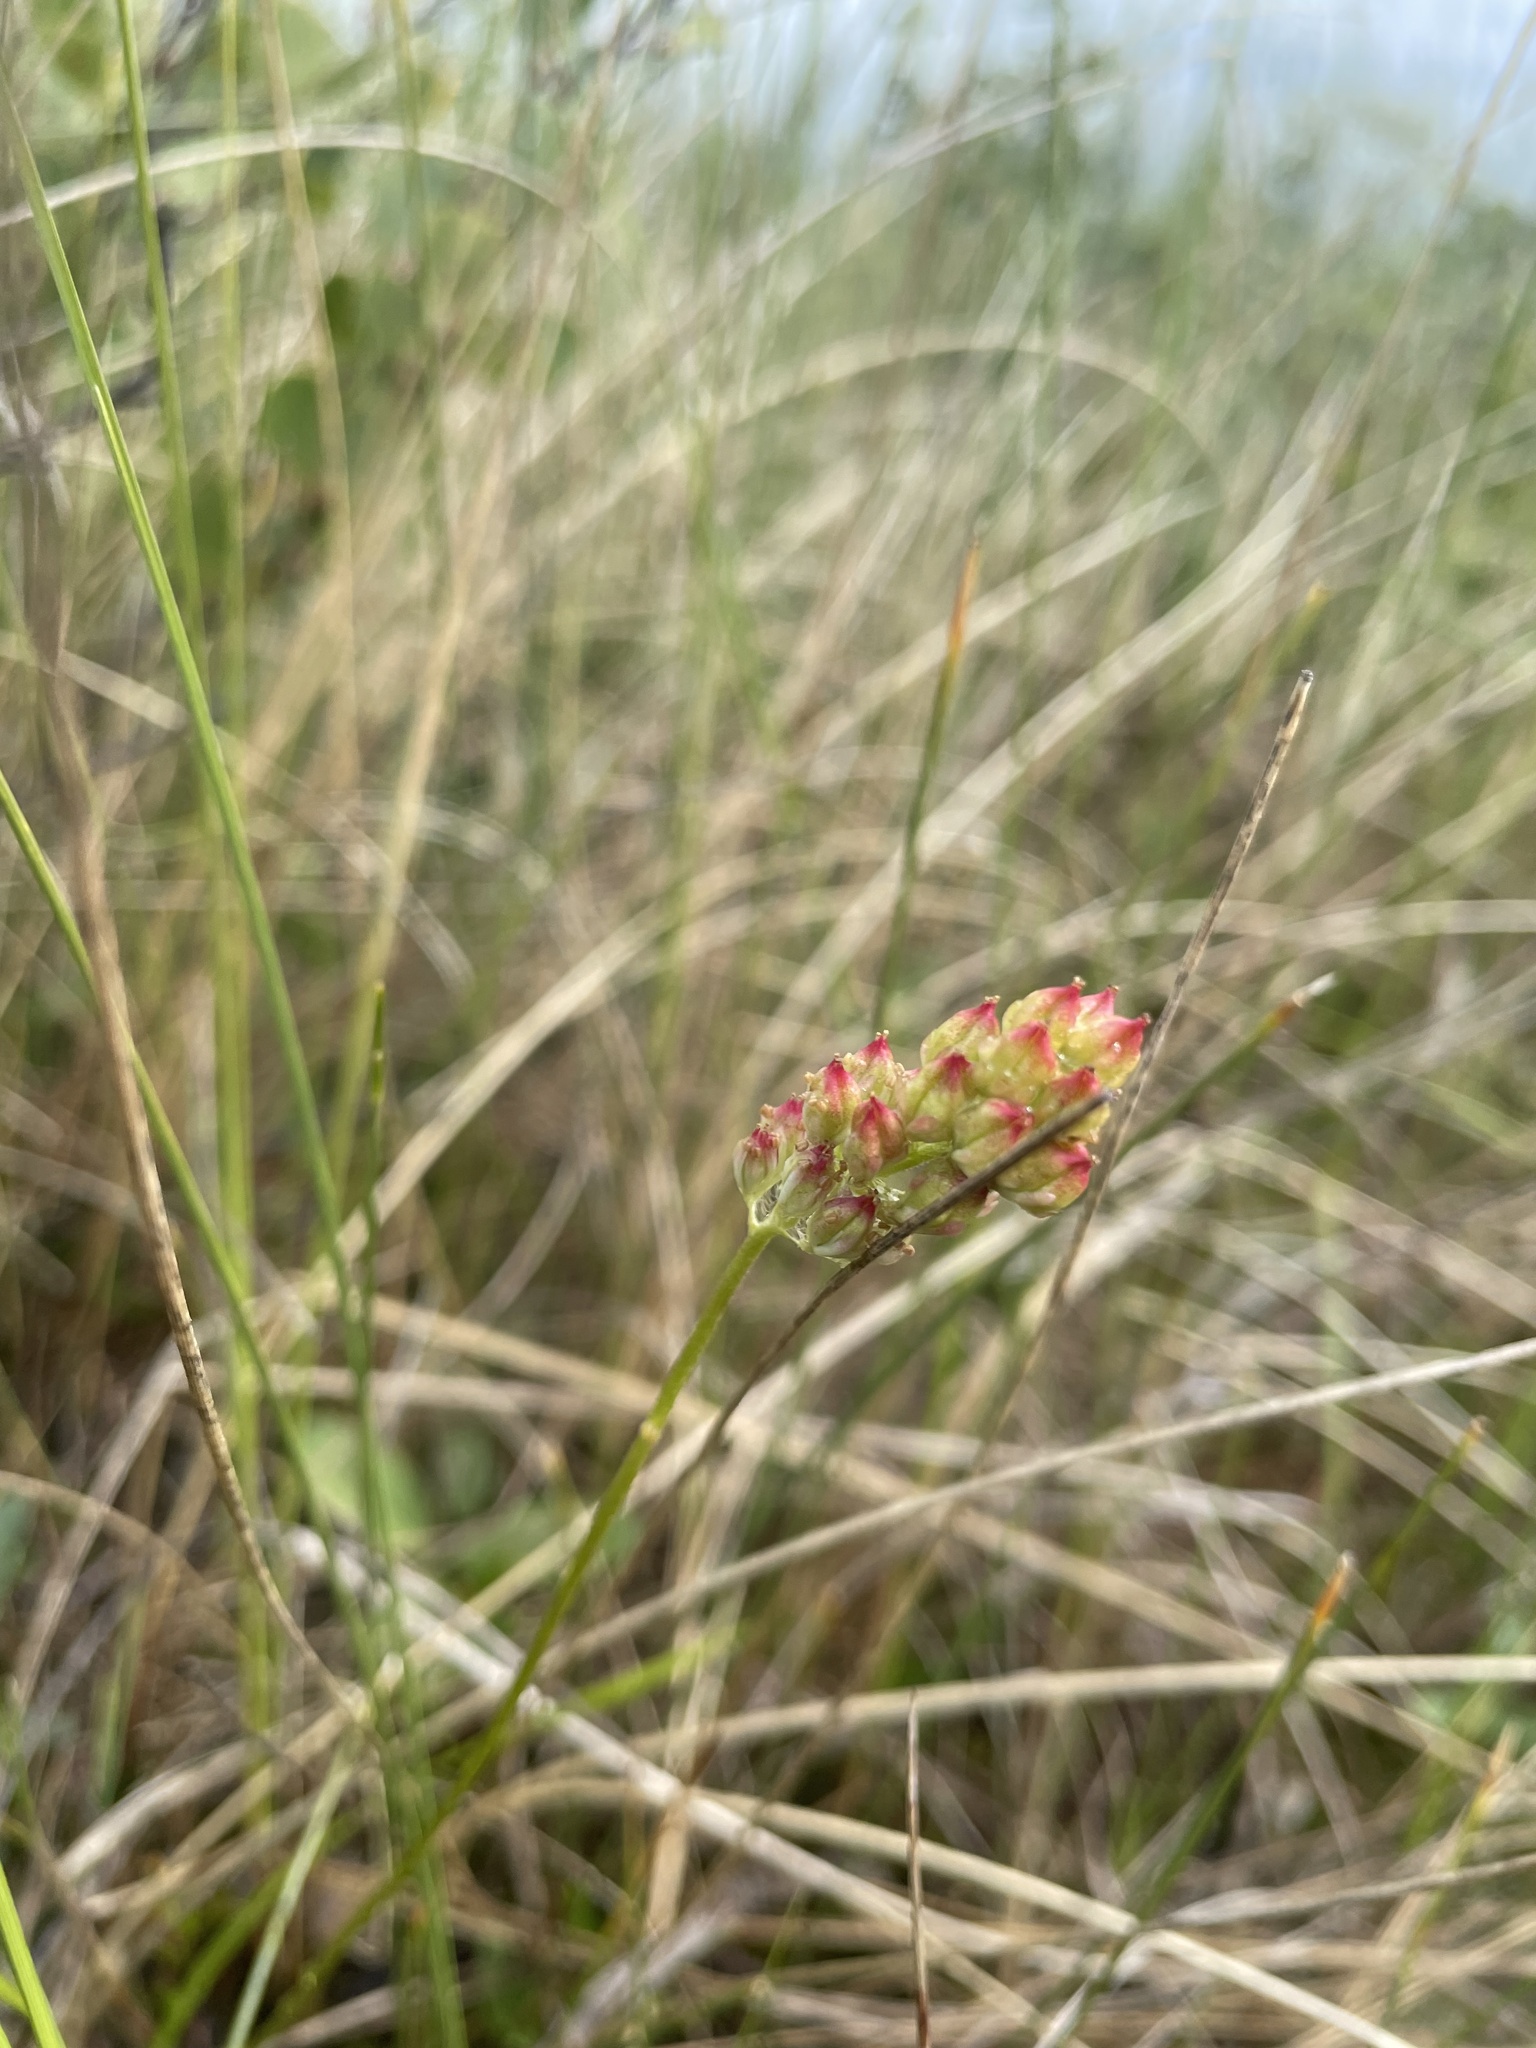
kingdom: Plantae
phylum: Tracheophyta
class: Liliopsida
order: Alismatales
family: Tofieldiaceae
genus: Triantha
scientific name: Triantha glutinosa
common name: Glutinous tofieldia
